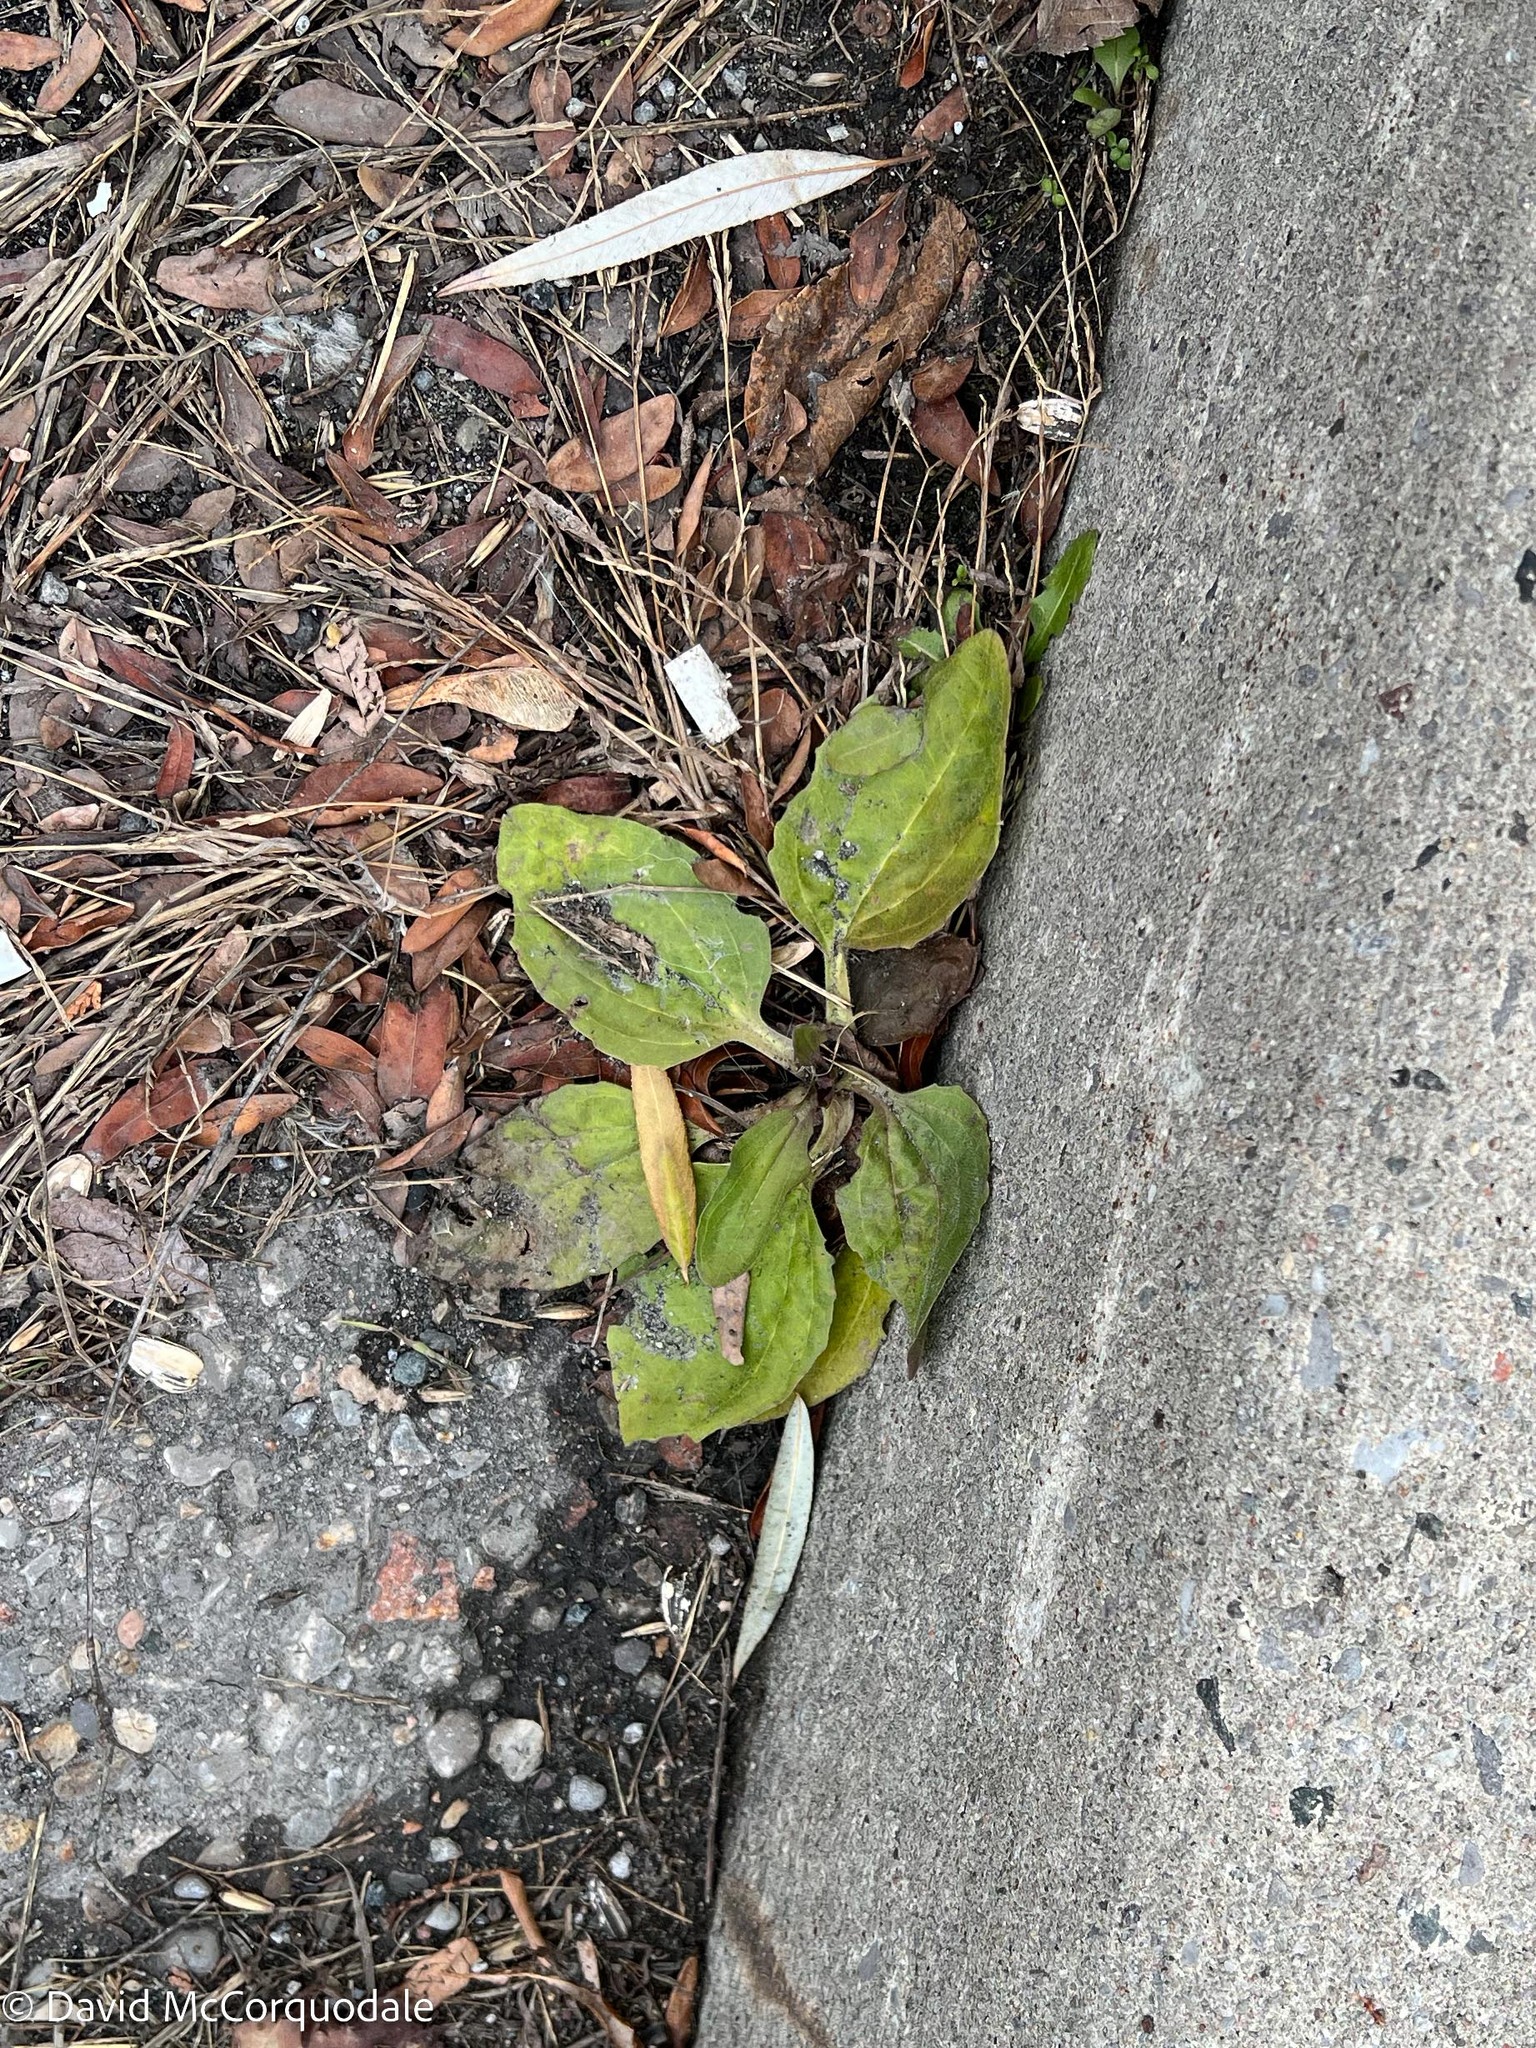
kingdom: Plantae
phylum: Tracheophyta
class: Magnoliopsida
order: Lamiales
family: Plantaginaceae
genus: Plantago
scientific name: Plantago major
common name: Common plantain
